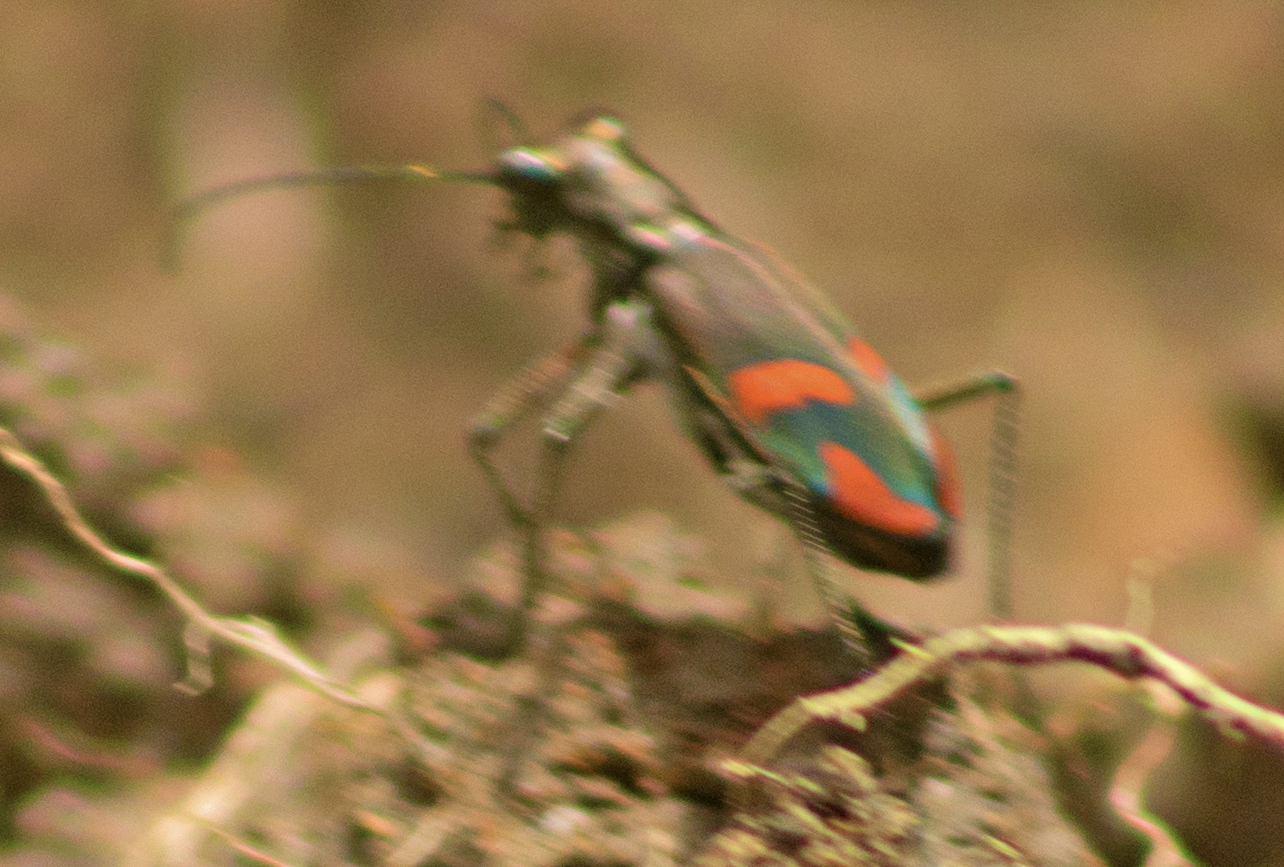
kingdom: Animalia
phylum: Arthropoda
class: Insecta
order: Coleoptera
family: Carabidae
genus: Cicindela
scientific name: Cicindela crespignyi
